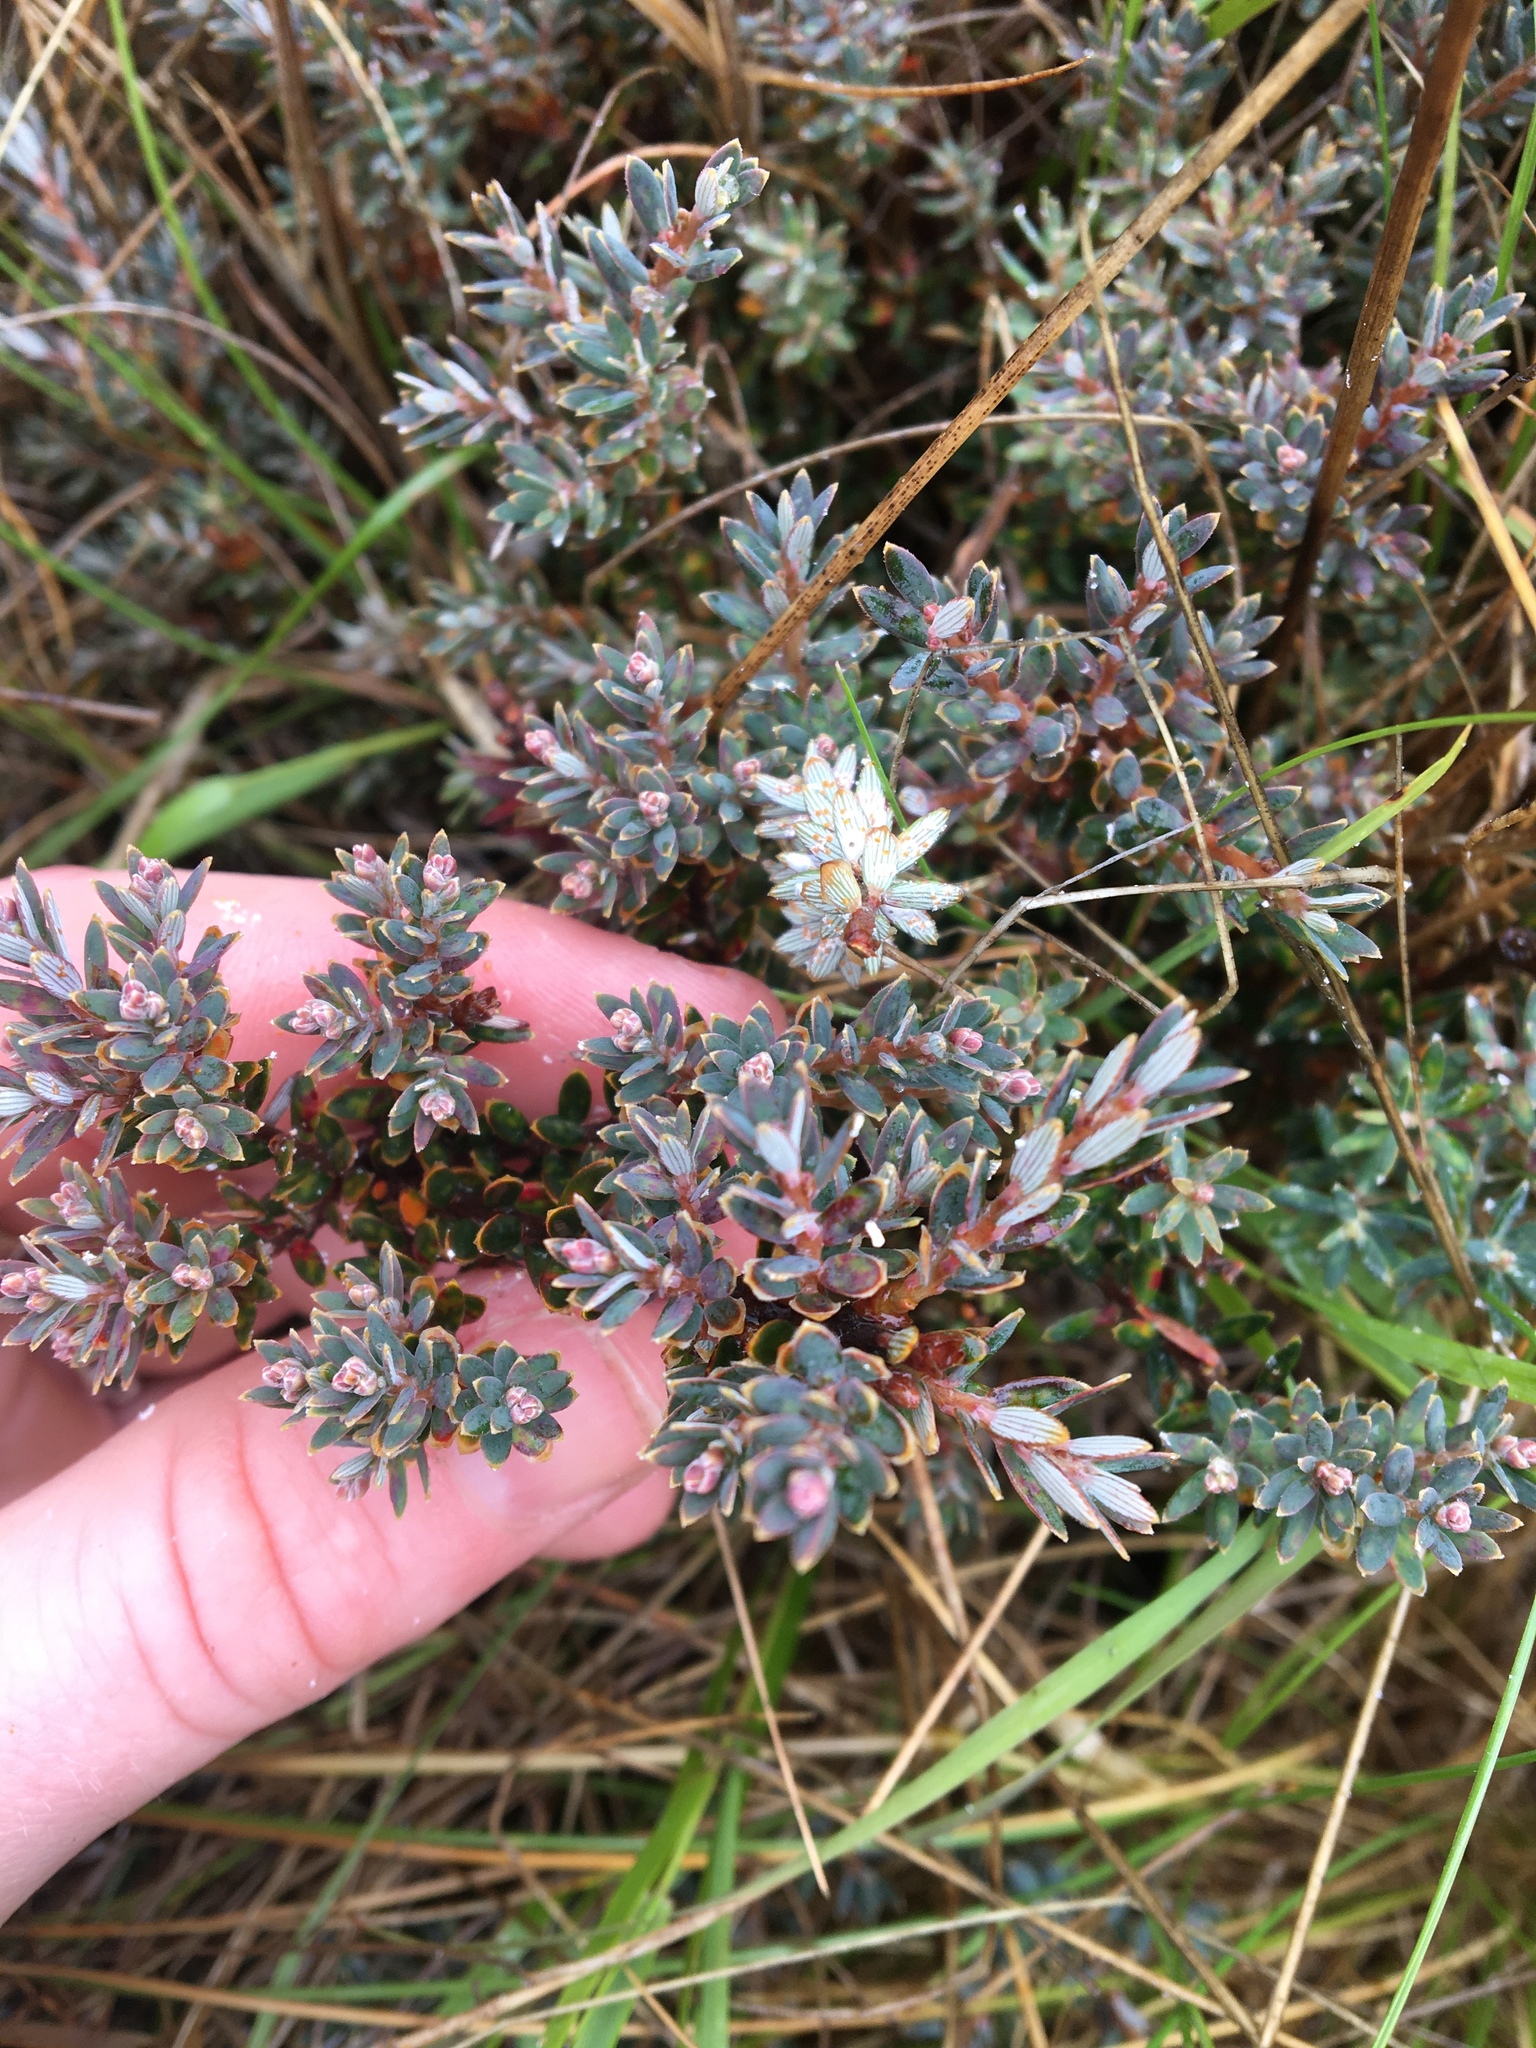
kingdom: Plantae
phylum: Tracheophyta
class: Magnoliopsida
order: Ericales
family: Ericaceae
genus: Acrothamnus
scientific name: Acrothamnus colensoi
